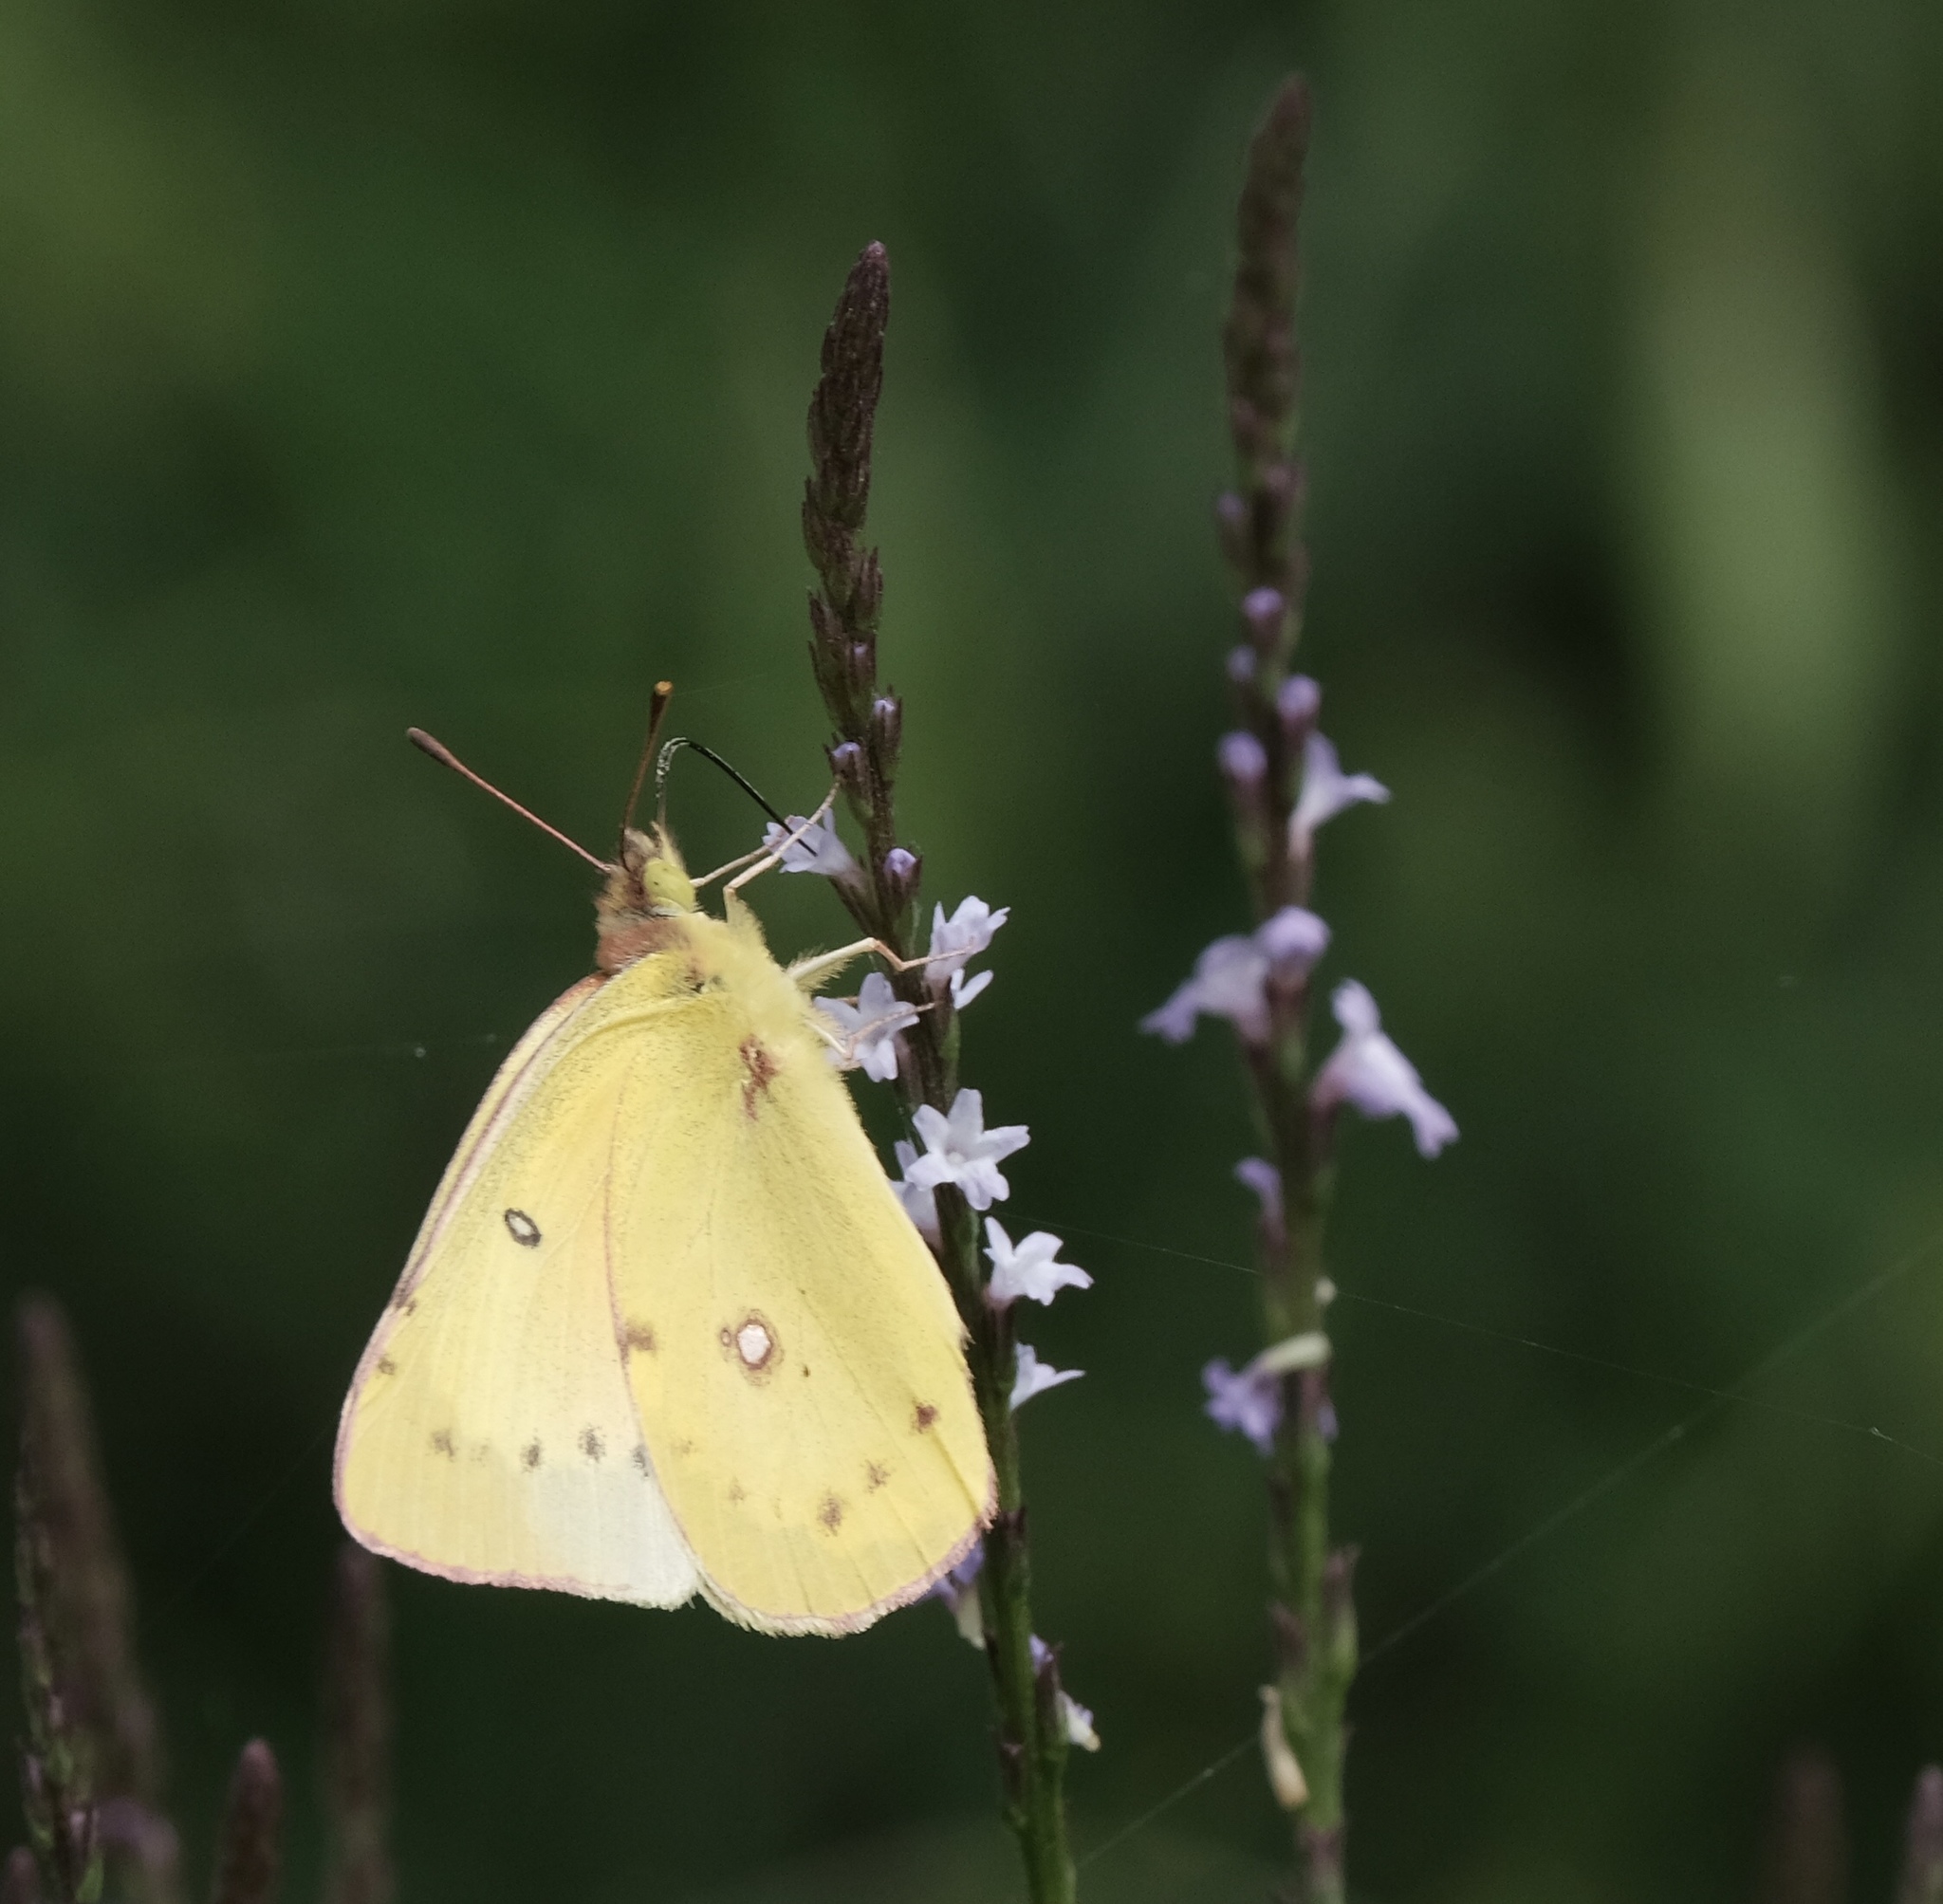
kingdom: Animalia
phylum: Arthropoda
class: Insecta
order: Lepidoptera
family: Pieridae
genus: Colias
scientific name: Colias eurytheme
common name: Alfalfa butterfly
